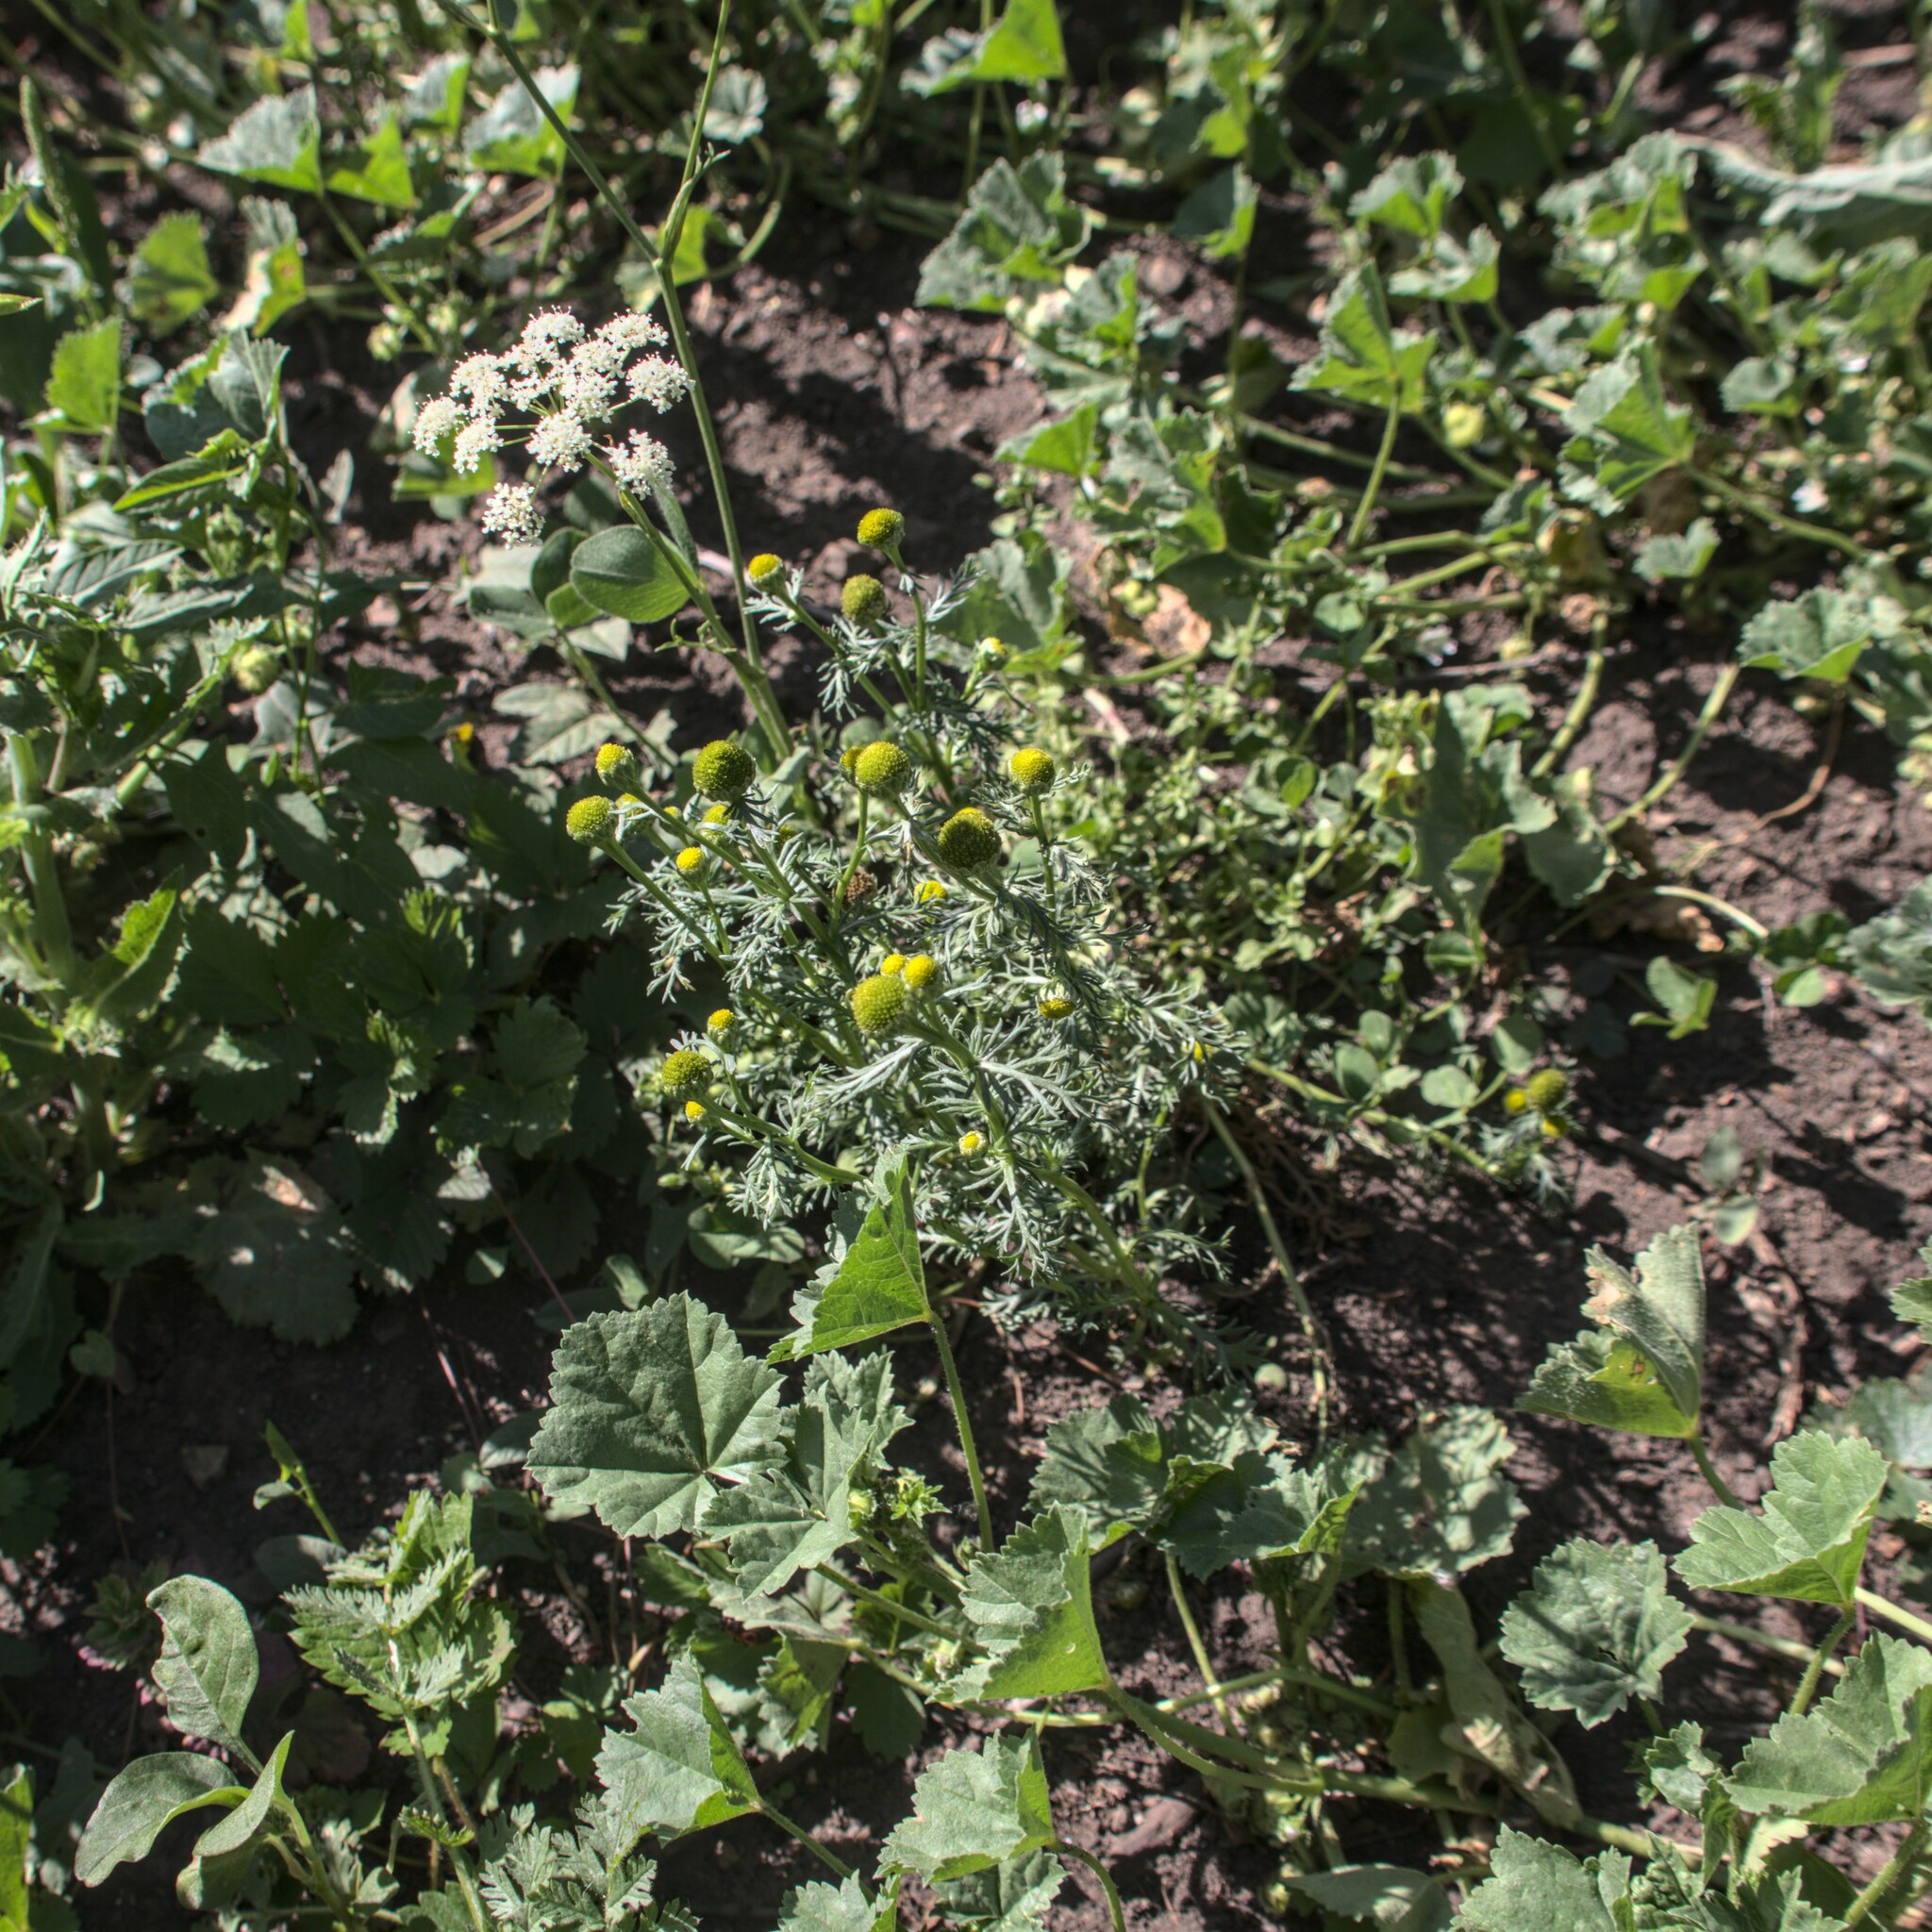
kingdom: Plantae
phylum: Tracheophyta
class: Magnoliopsida
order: Asterales
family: Asteraceae
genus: Matricaria
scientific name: Matricaria discoidea
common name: Disc mayweed
